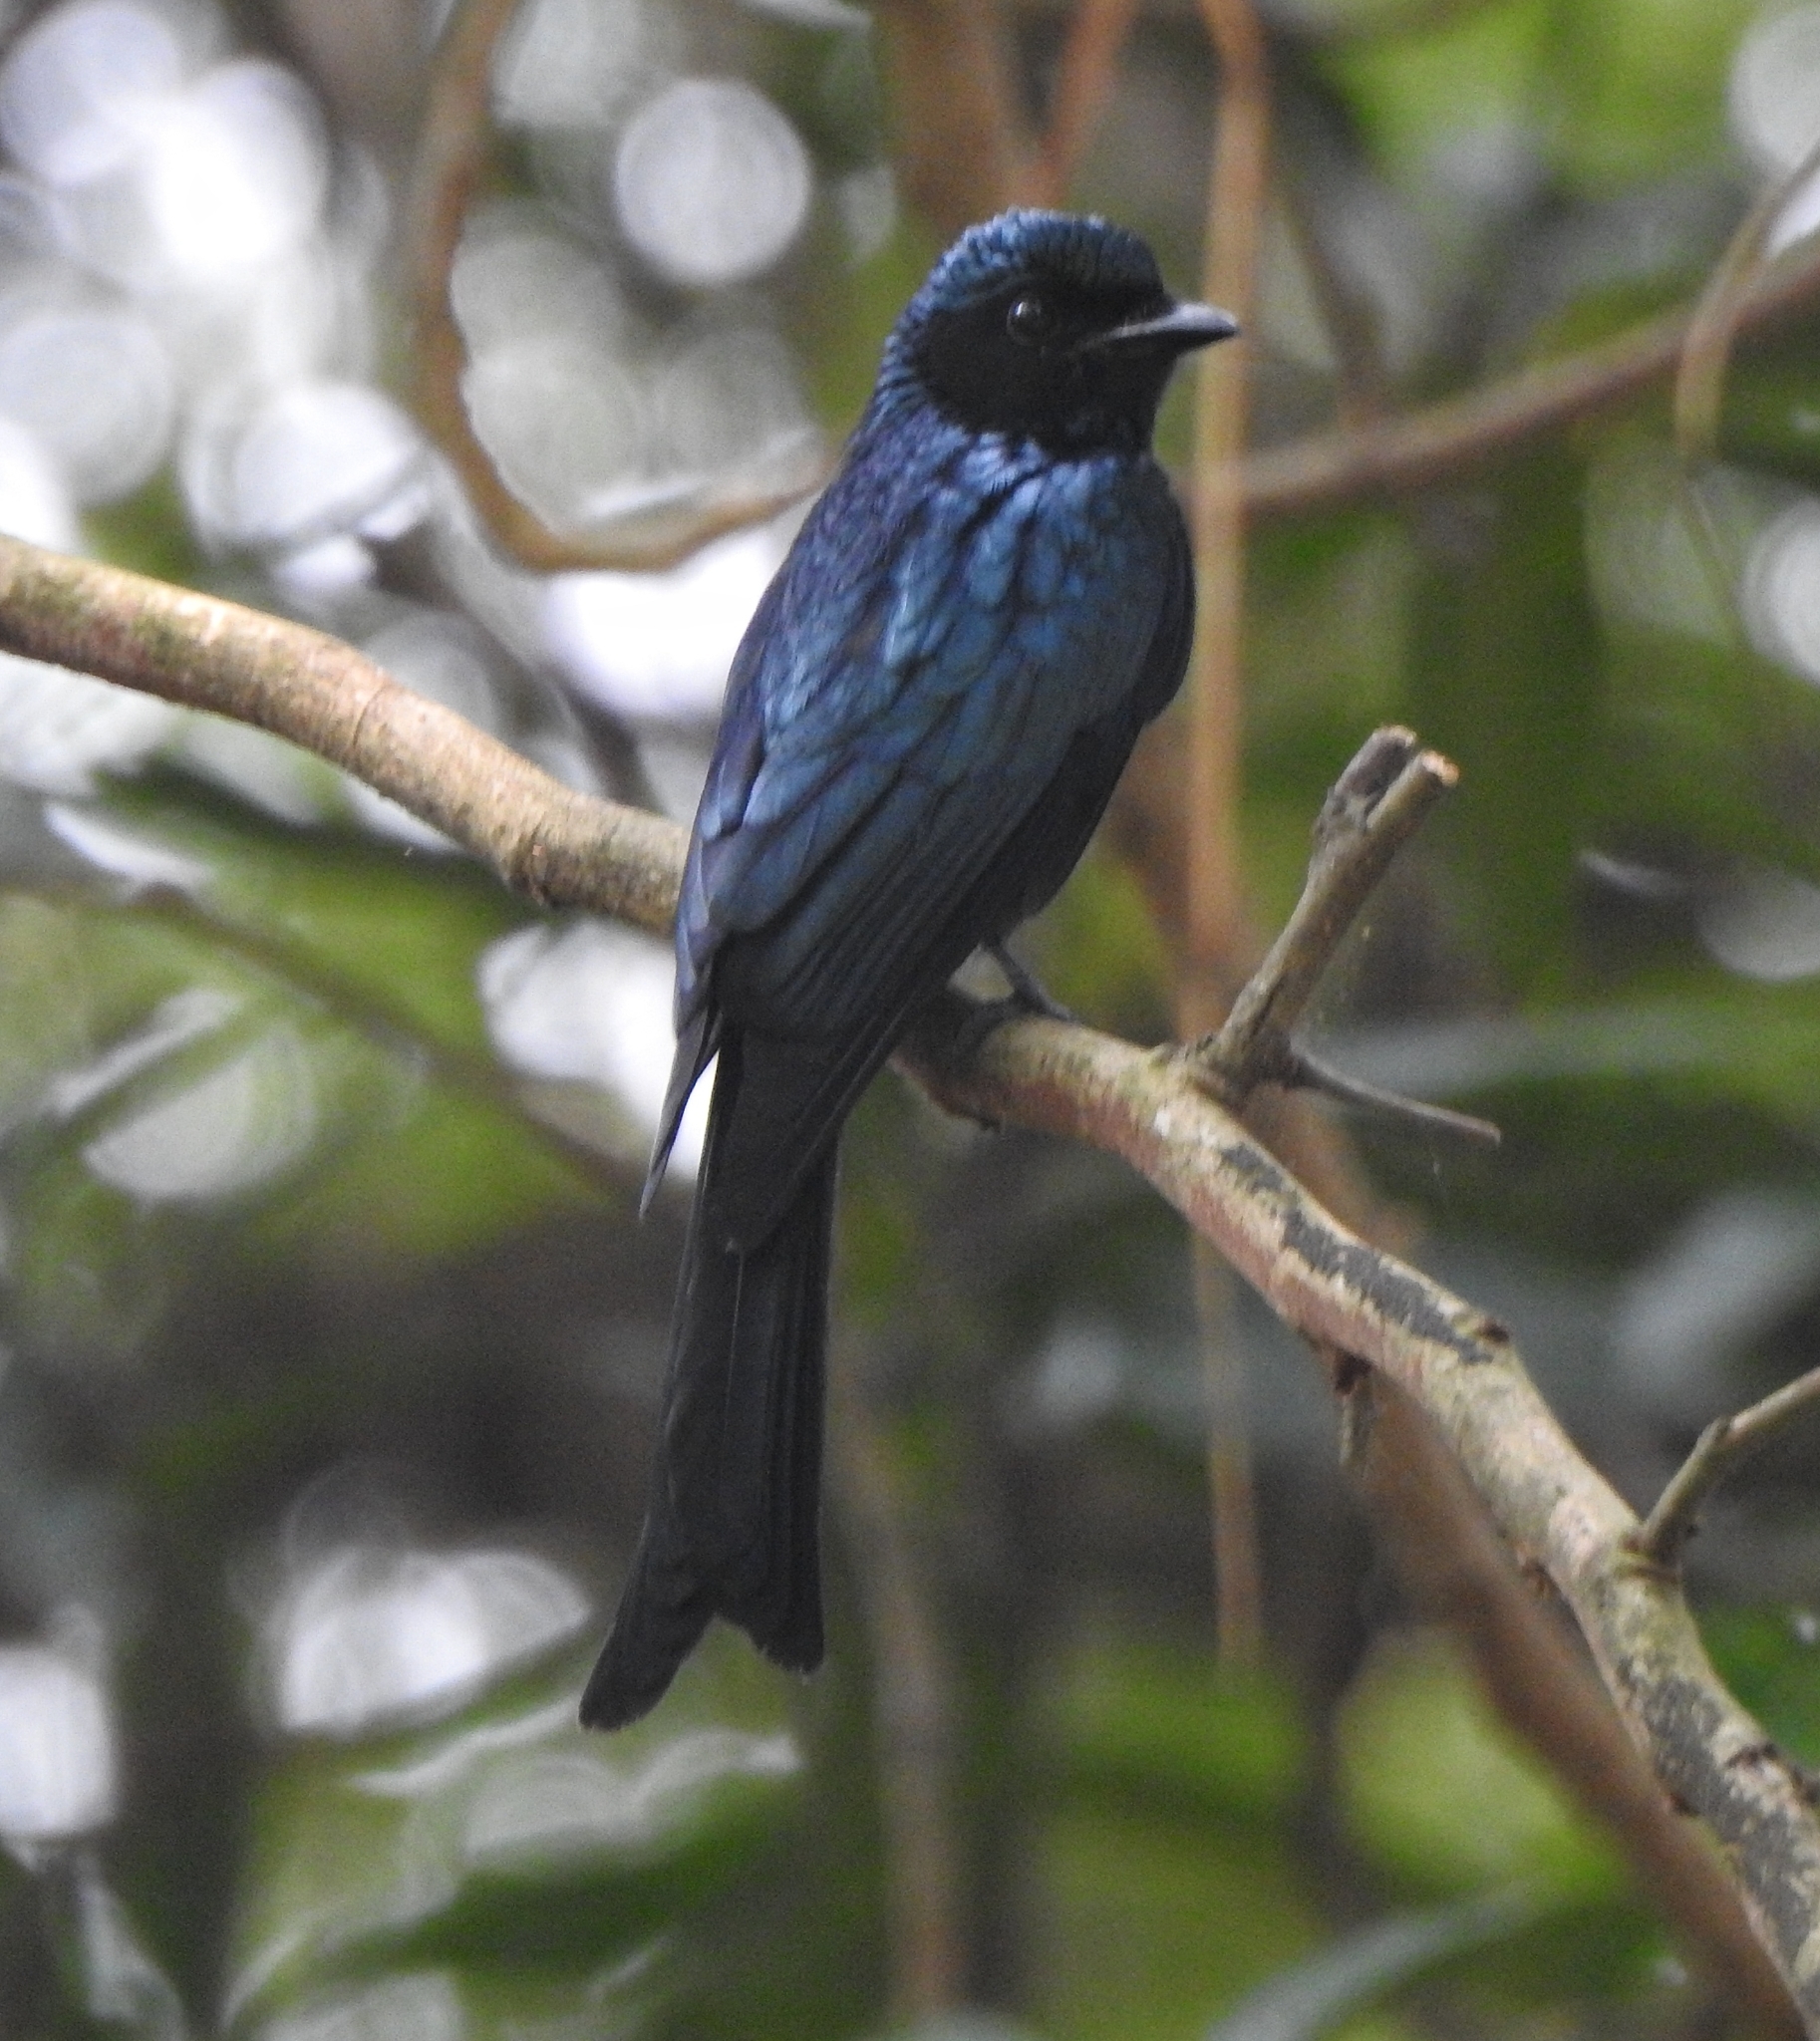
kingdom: Animalia
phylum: Chordata
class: Aves
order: Passeriformes
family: Dicruridae
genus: Dicrurus
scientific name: Dicrurus aeneus
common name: Bronzed drongo
